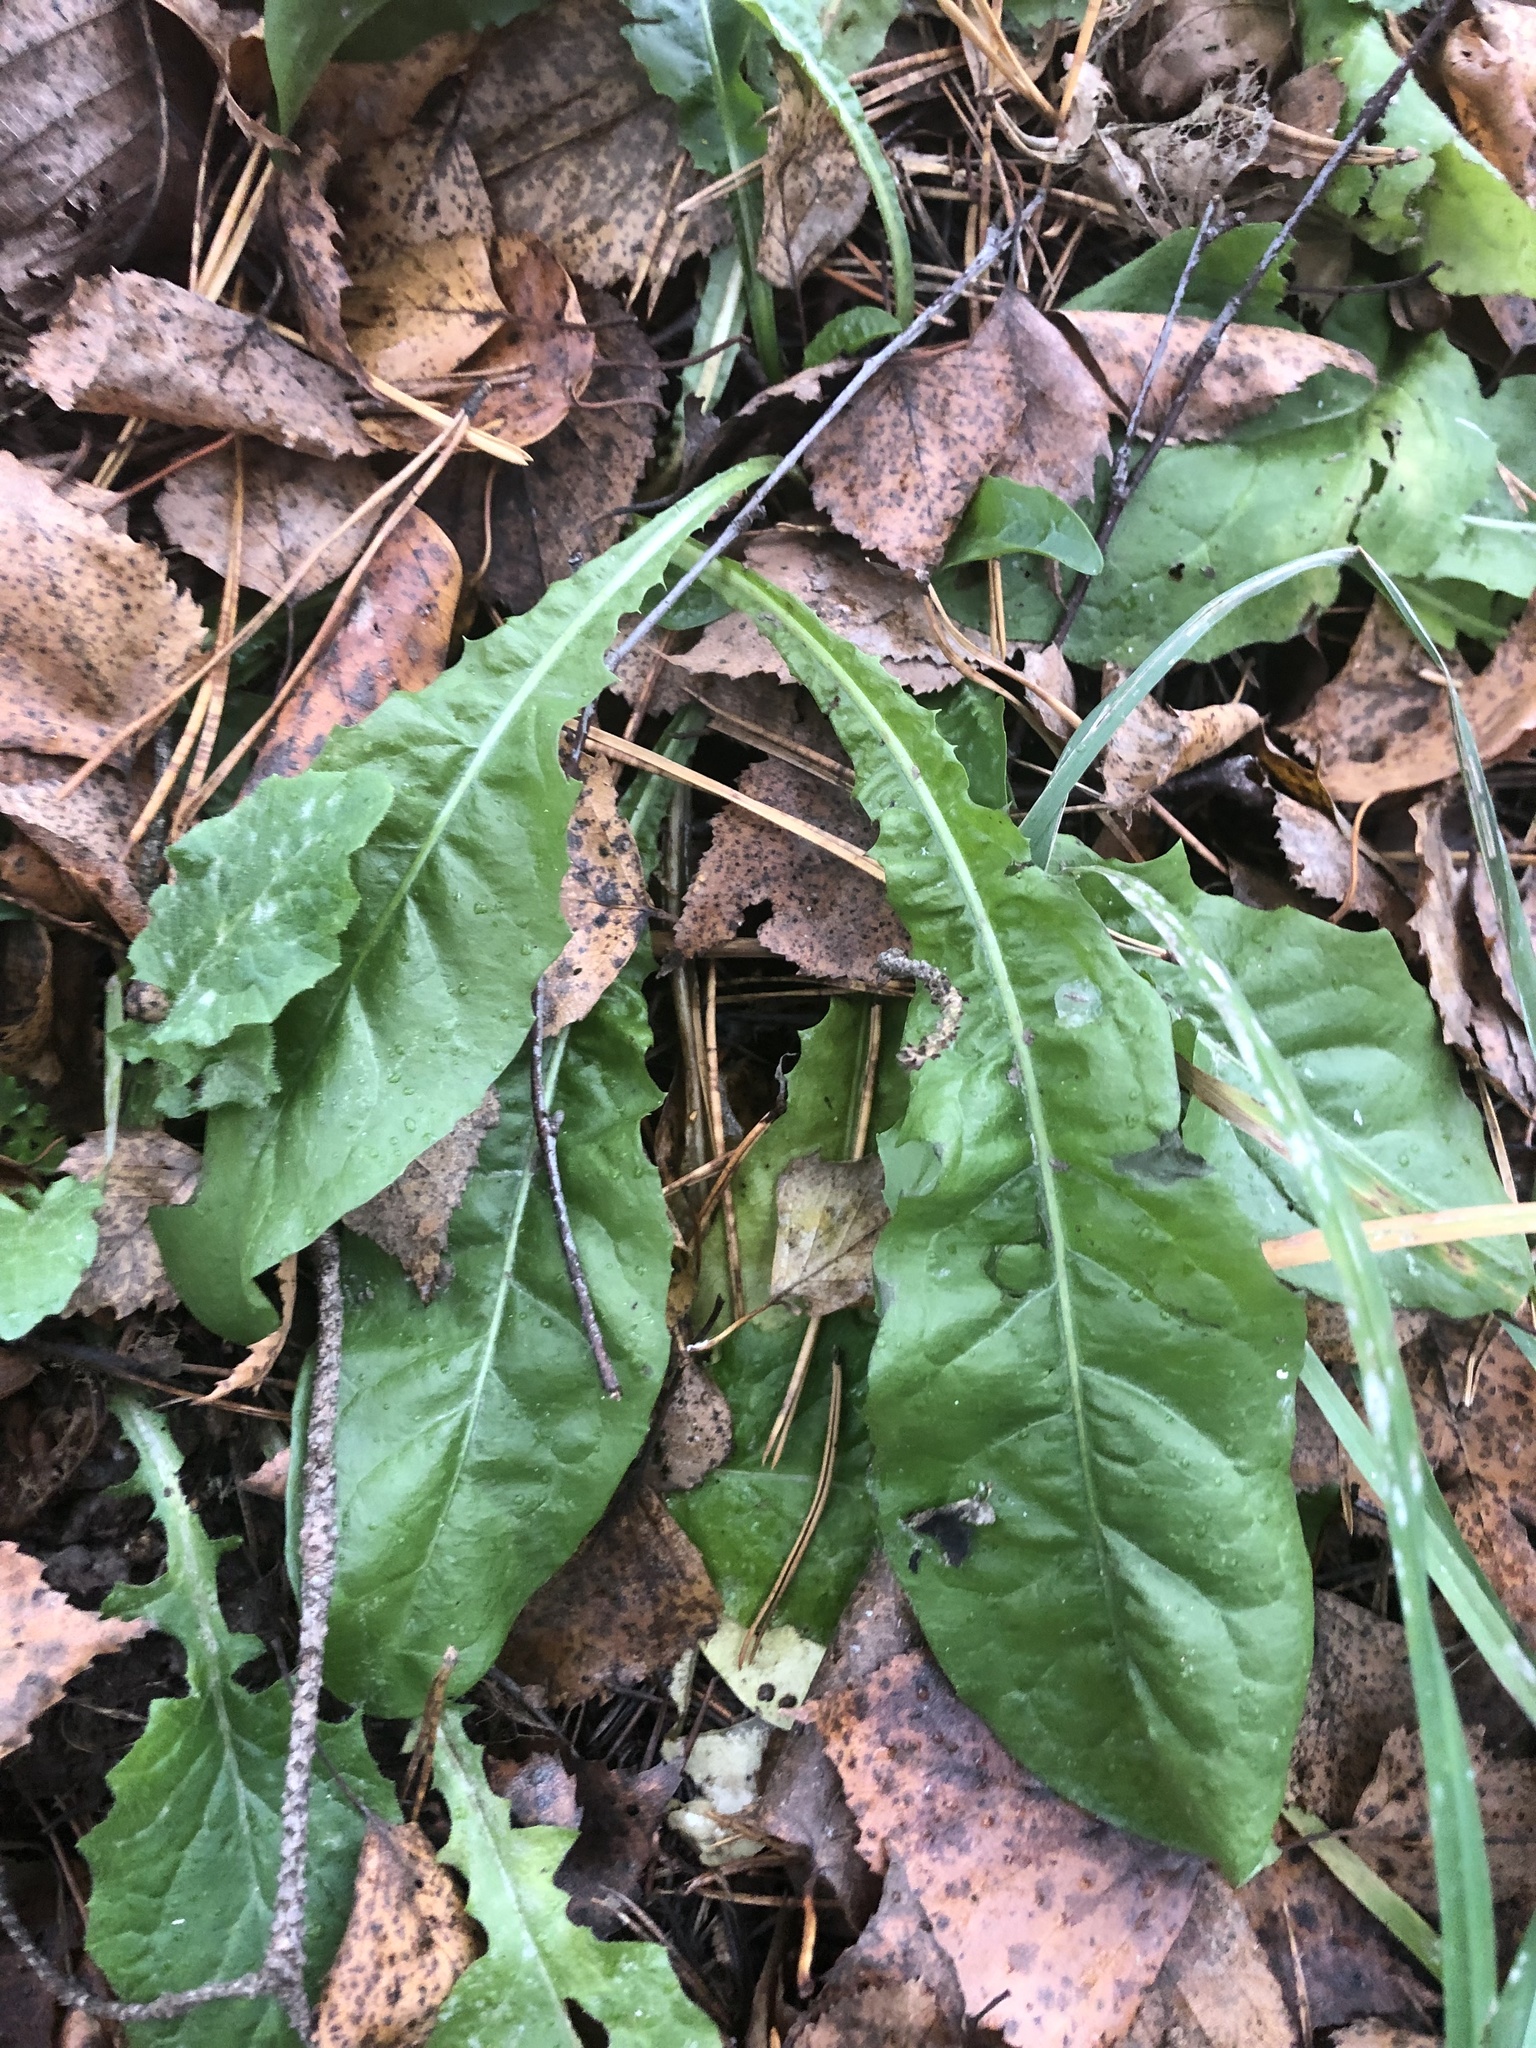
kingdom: Plantae
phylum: Tracheophyta
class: Magnoliopsida
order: Asterales
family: Asteraceae
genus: Taraxacum
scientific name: Taraxacum officinale
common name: Common dandelion
